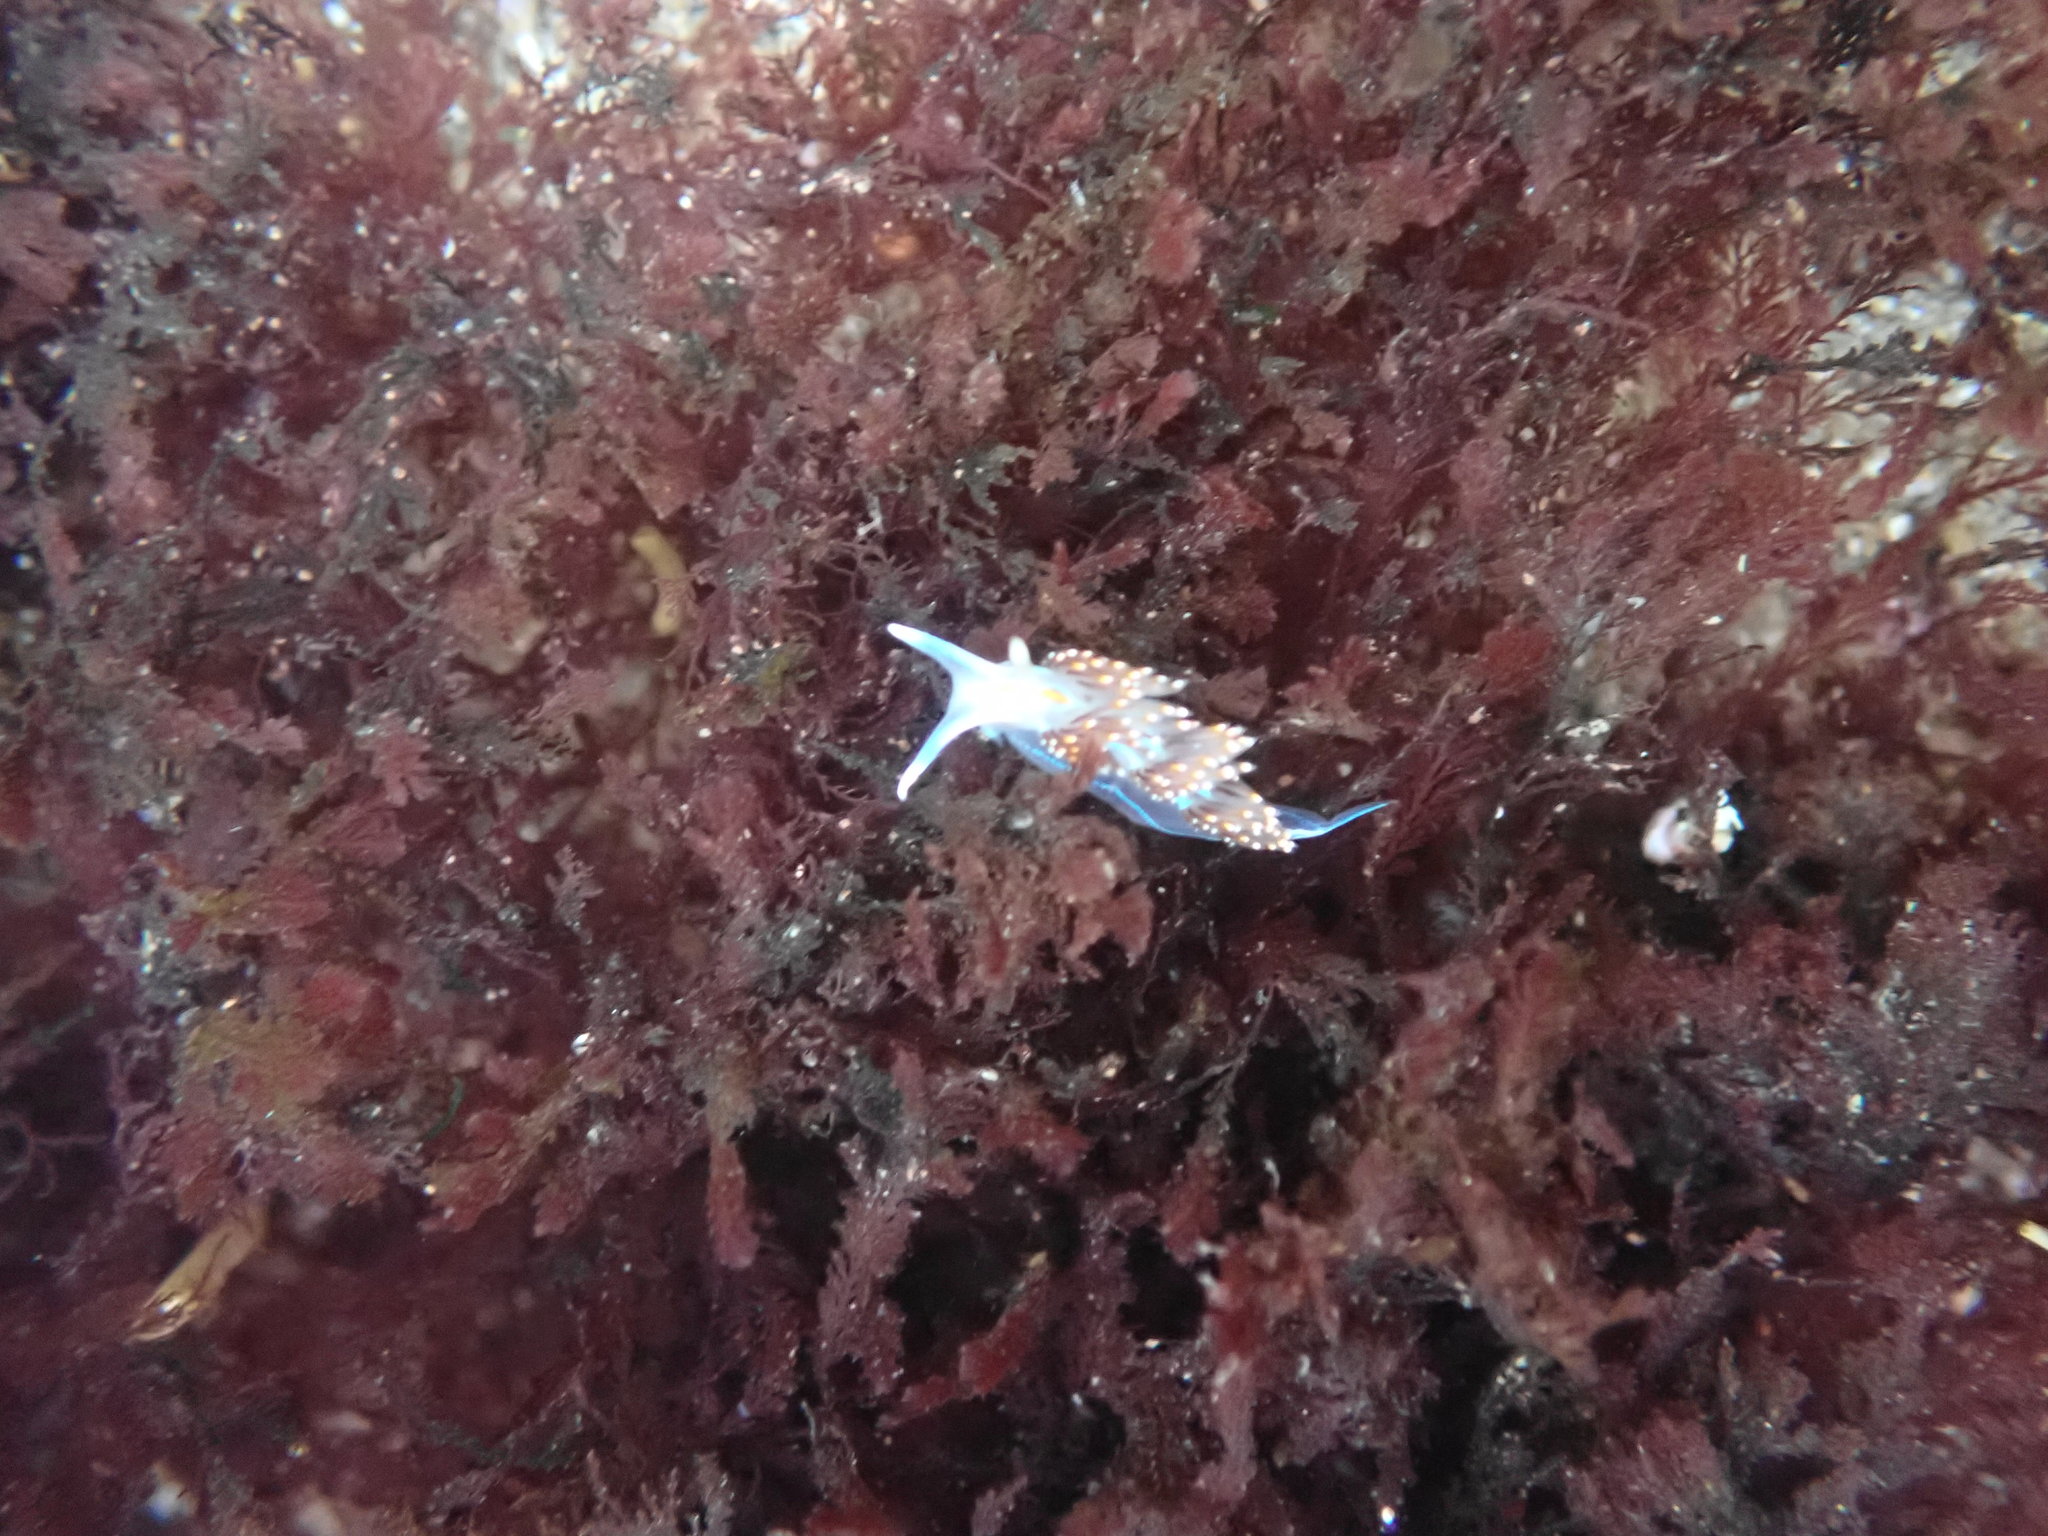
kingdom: Animalia
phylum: Mollusca
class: Gastropoda
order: Nudibranchia
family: Myrrhinidae
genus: Hermissenda
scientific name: Hermissenda opalescens
